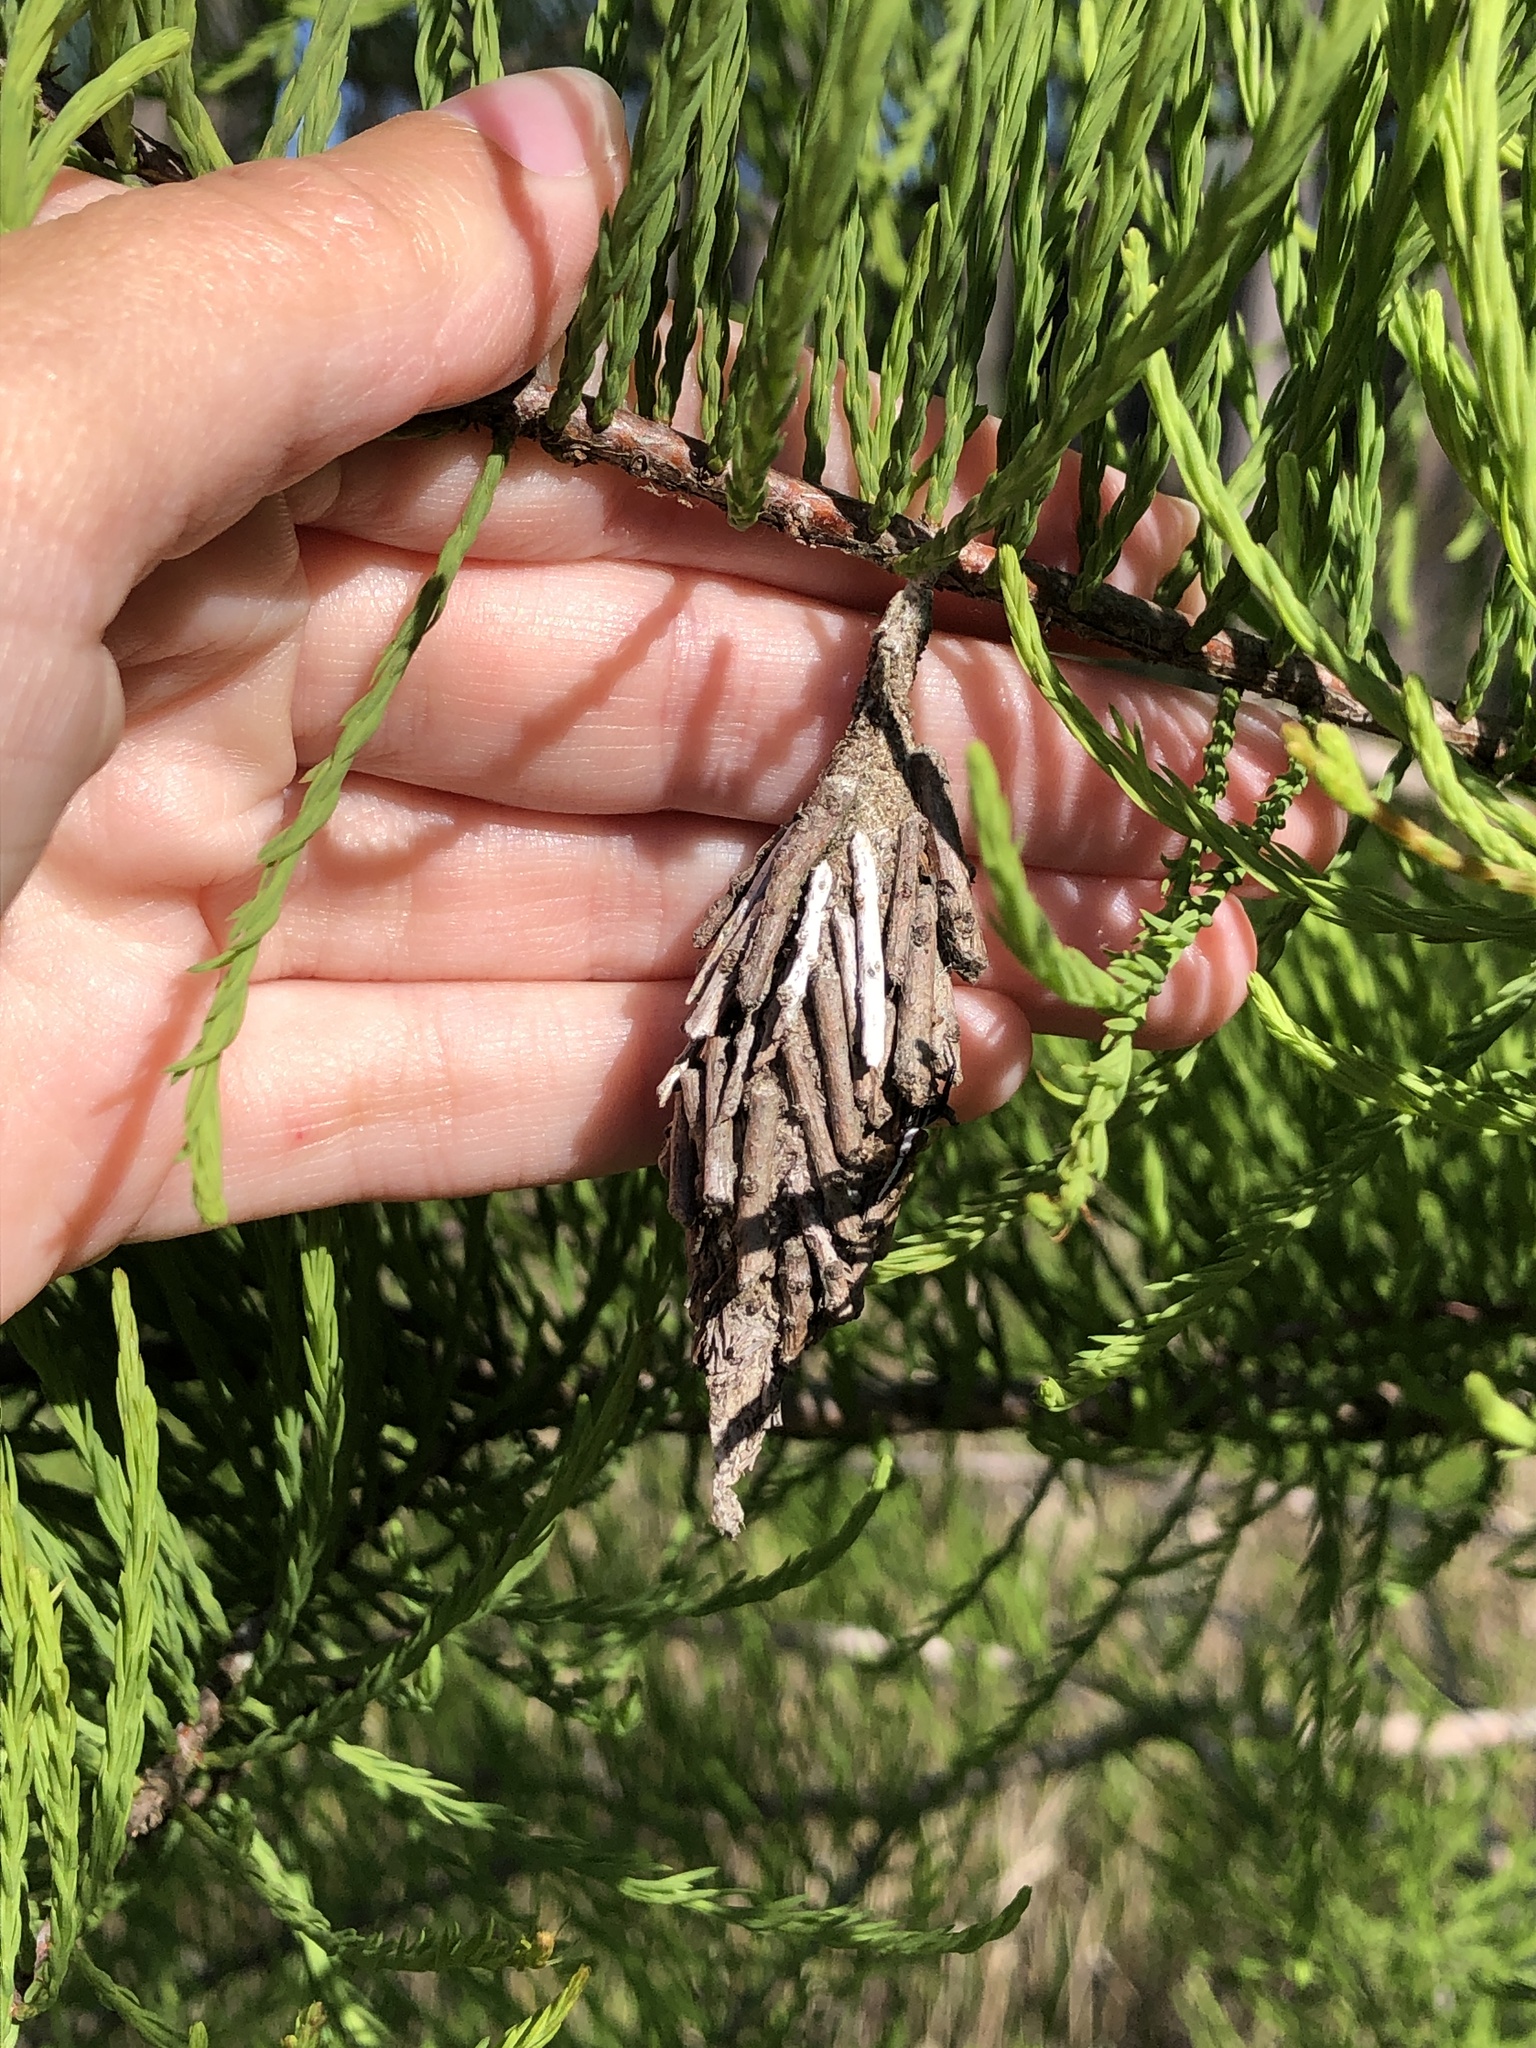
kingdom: Animalia
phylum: Arthropoda
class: Insecta
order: Lepidoptera
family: Psychidae
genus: Thyridopteryx
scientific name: Thyridopteryx ephemeraeformis
